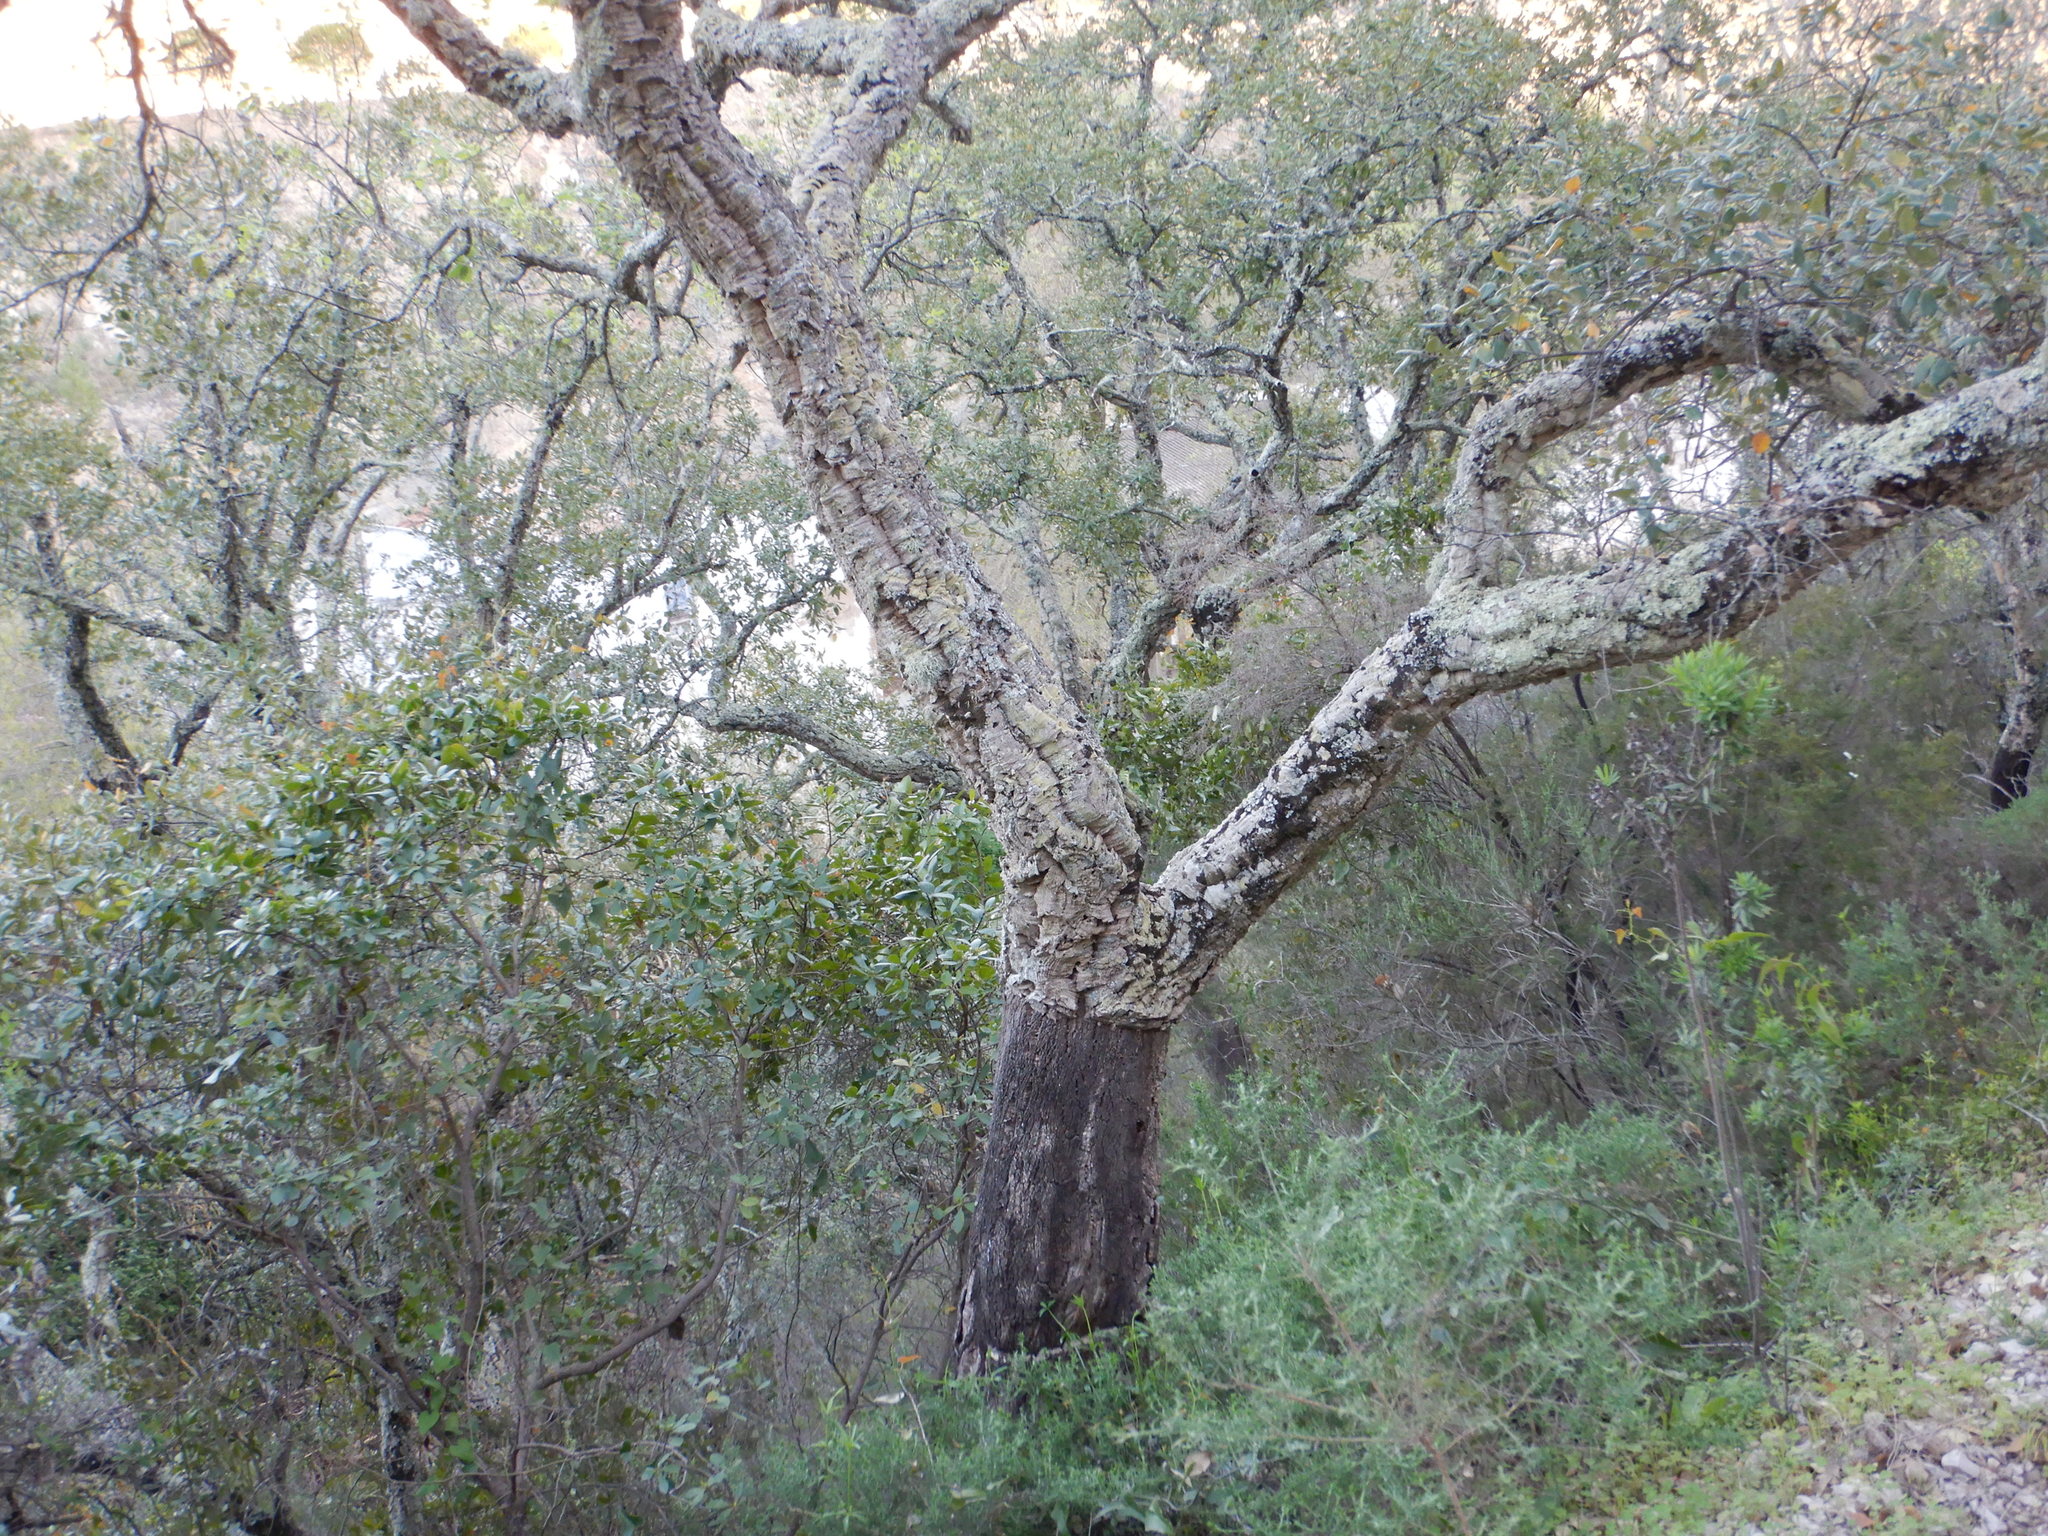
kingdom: Plantae
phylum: Tracheophyta
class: Magnoliopsida
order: Fagales
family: Fagaceae
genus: Quercus
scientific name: Quercus suber
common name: Cork oak
